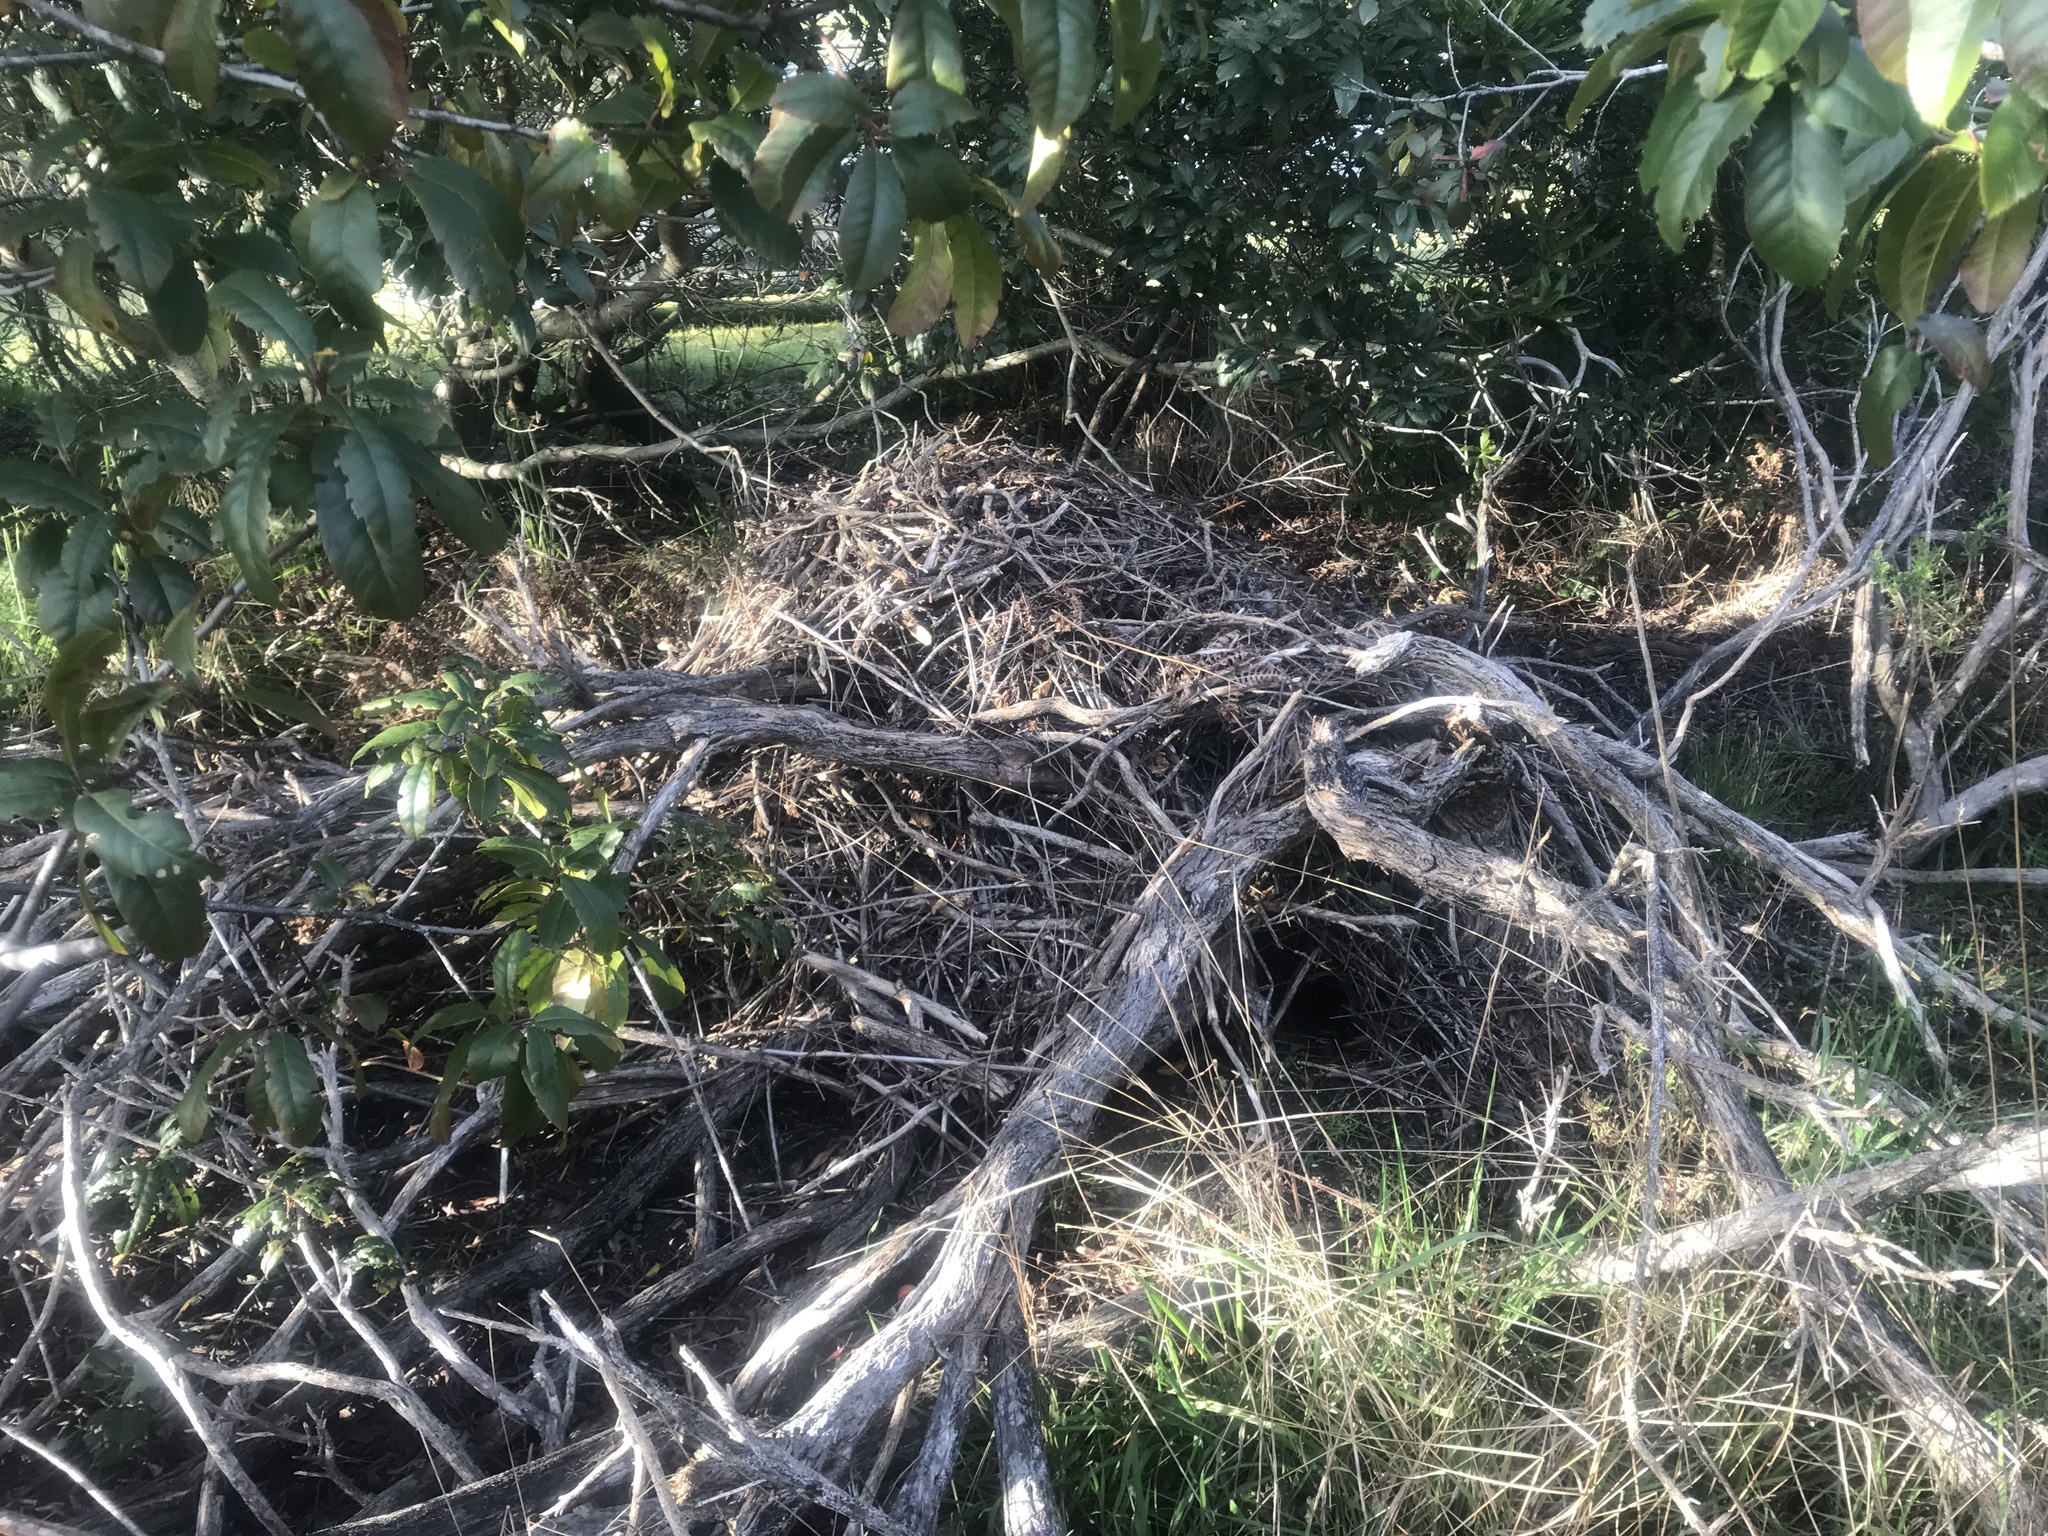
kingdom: Animalia
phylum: Chordata
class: Mammalia
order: Rodentia
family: Cricetidae
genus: Neotoma
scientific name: Neotoma fuscipes
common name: Dusky-footed woodrat
